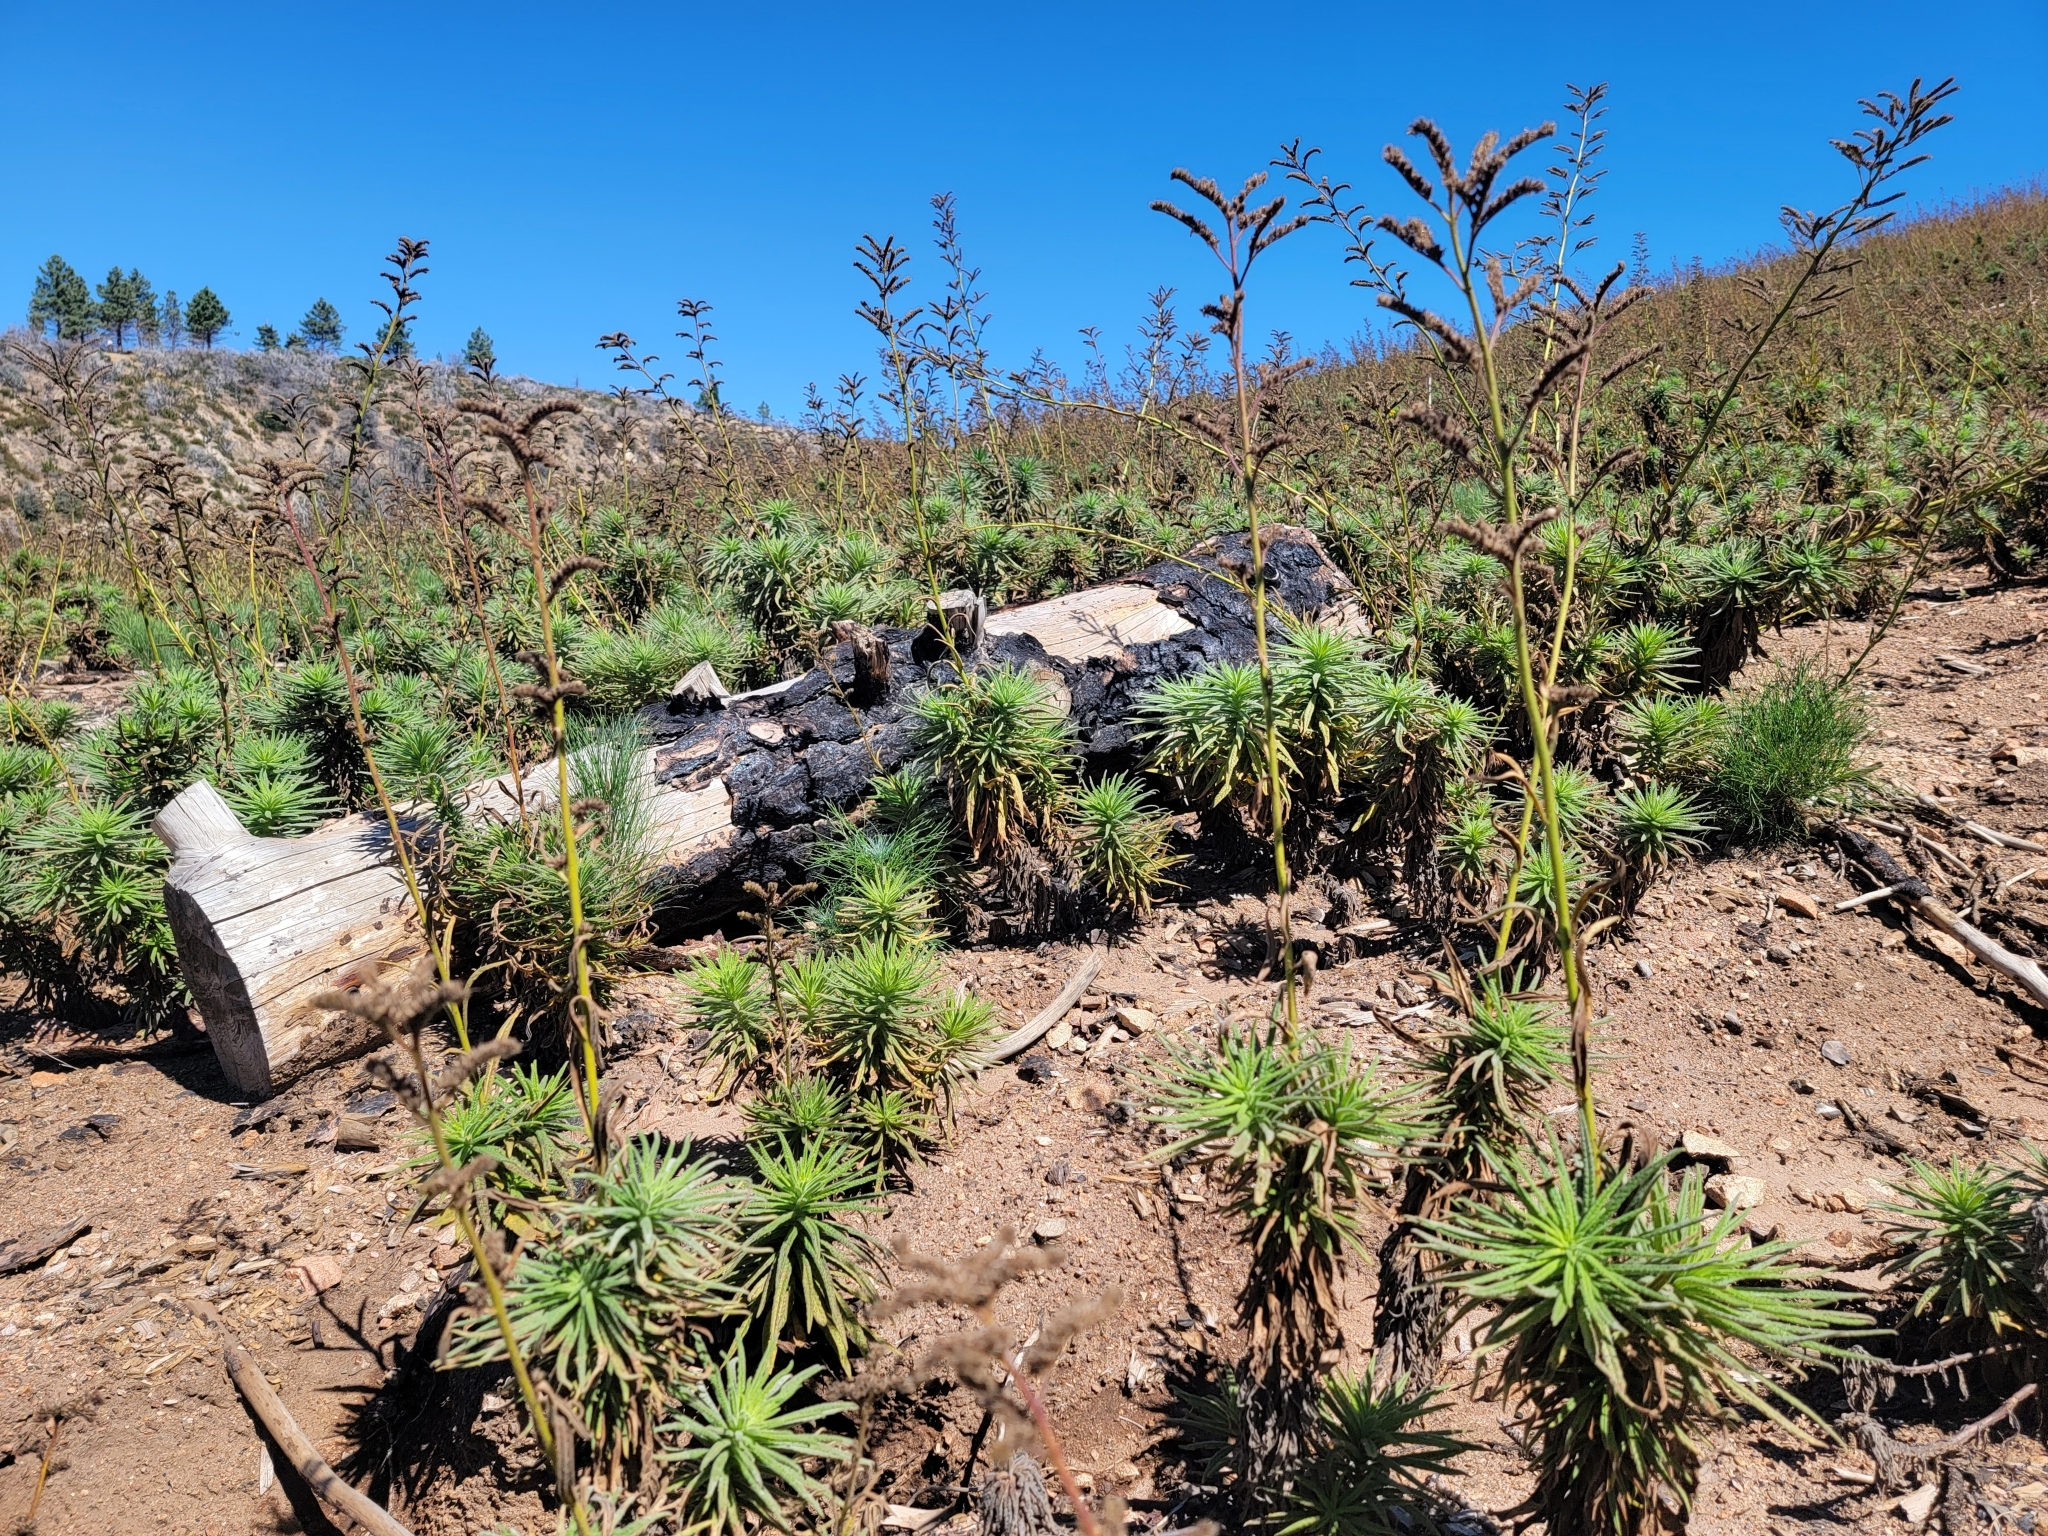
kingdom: Plantae
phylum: Tracheophyta
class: Magnoliopsida
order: Boraginales
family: Namaceae
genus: Turricula
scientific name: Turricula parryi
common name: Poodle-dog-bush
